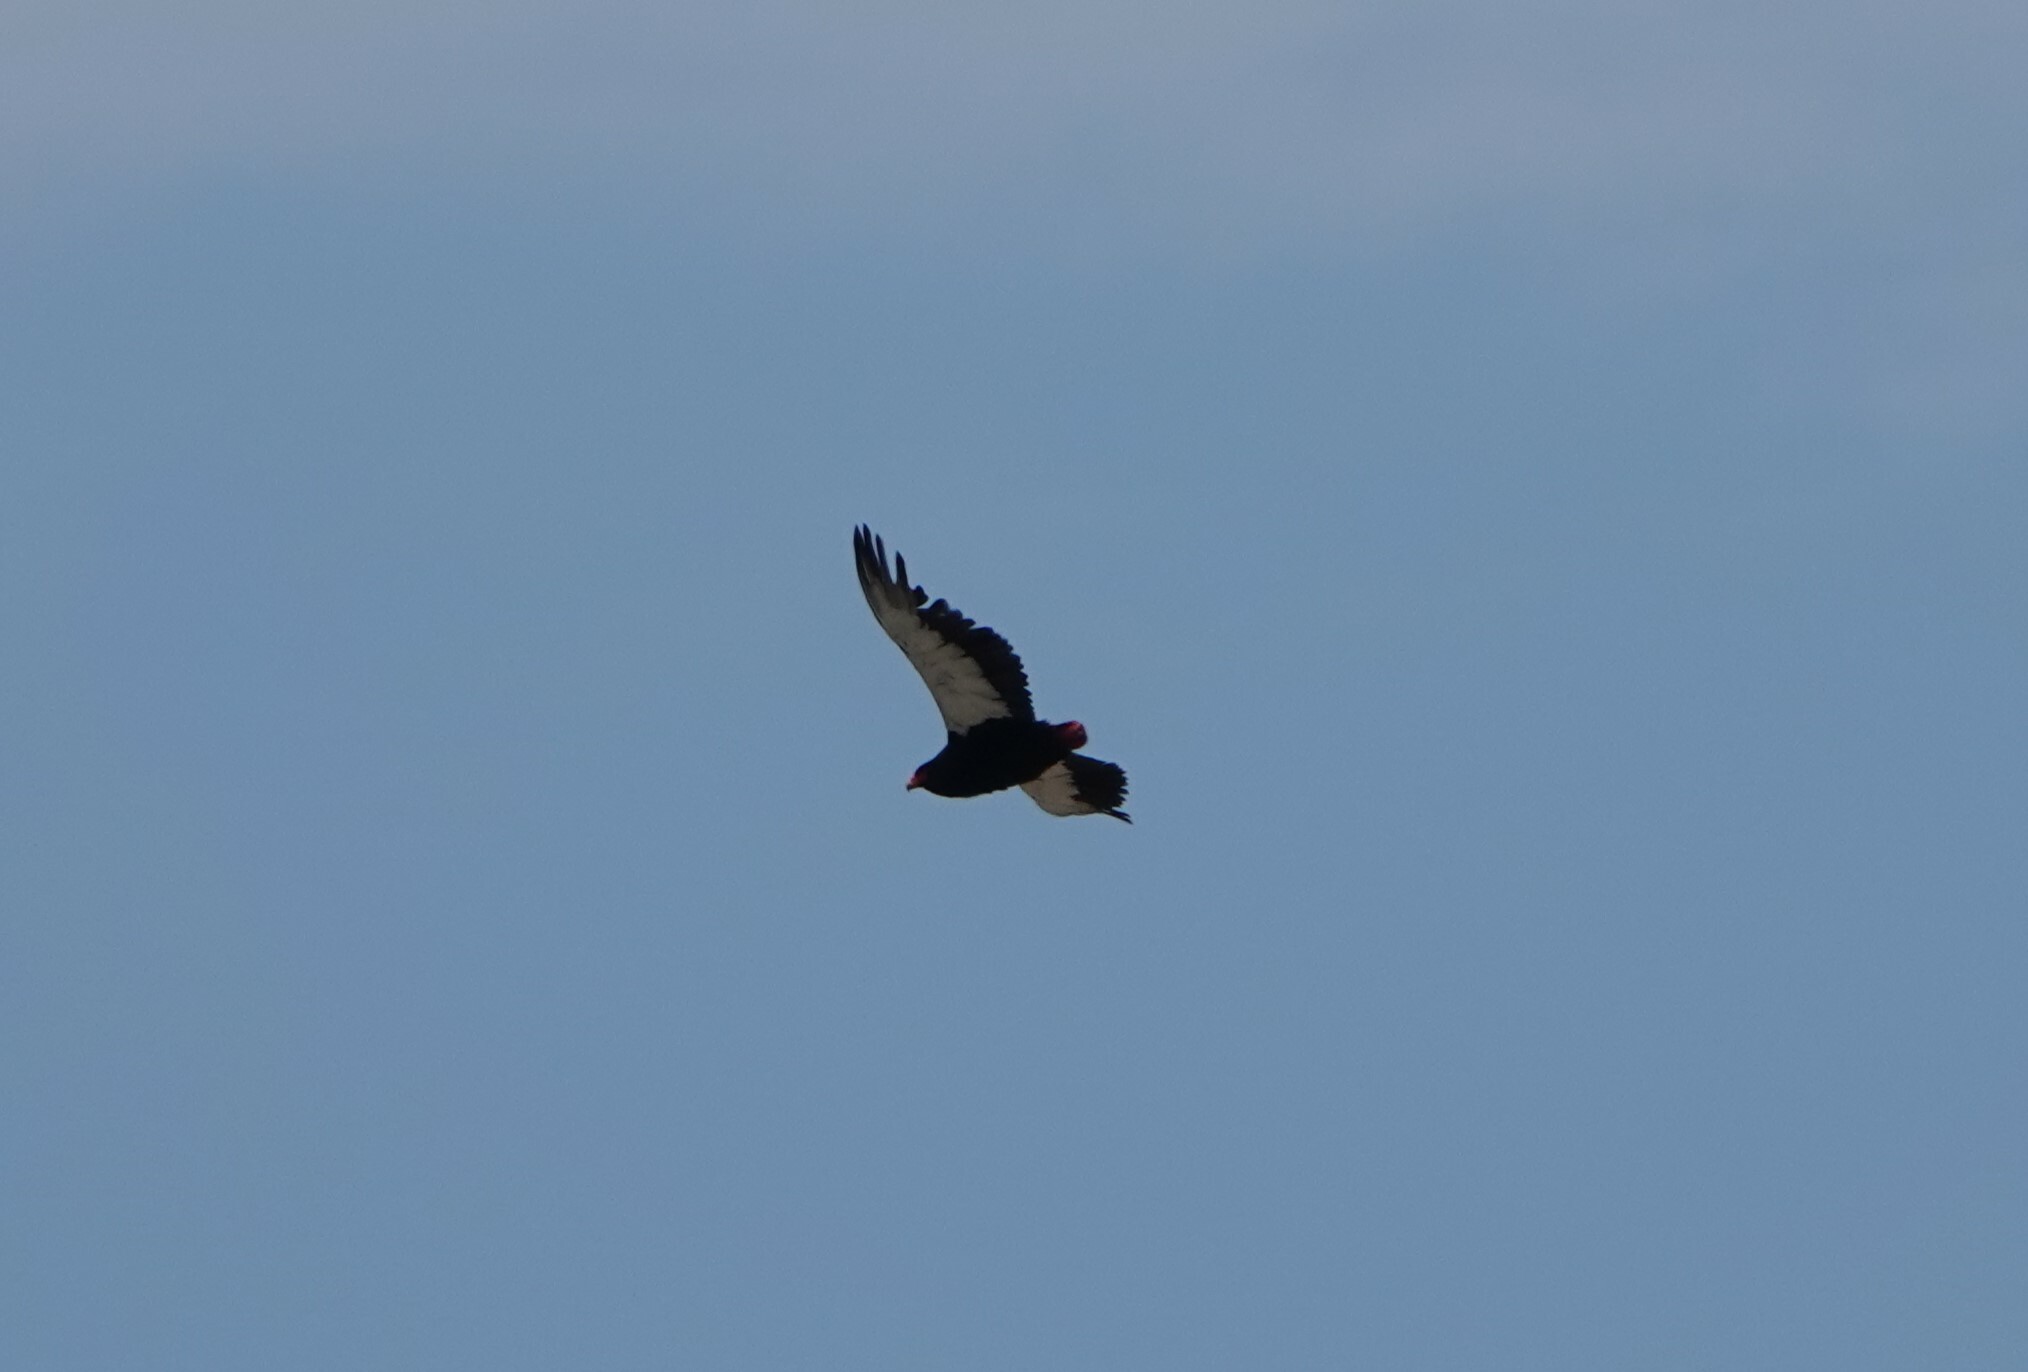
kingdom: Animalia
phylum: Chordata
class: Aves
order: Accipitriformes
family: Accipitridae
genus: Terathopius
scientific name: Terathopius ecaudatus
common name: Bateleur
